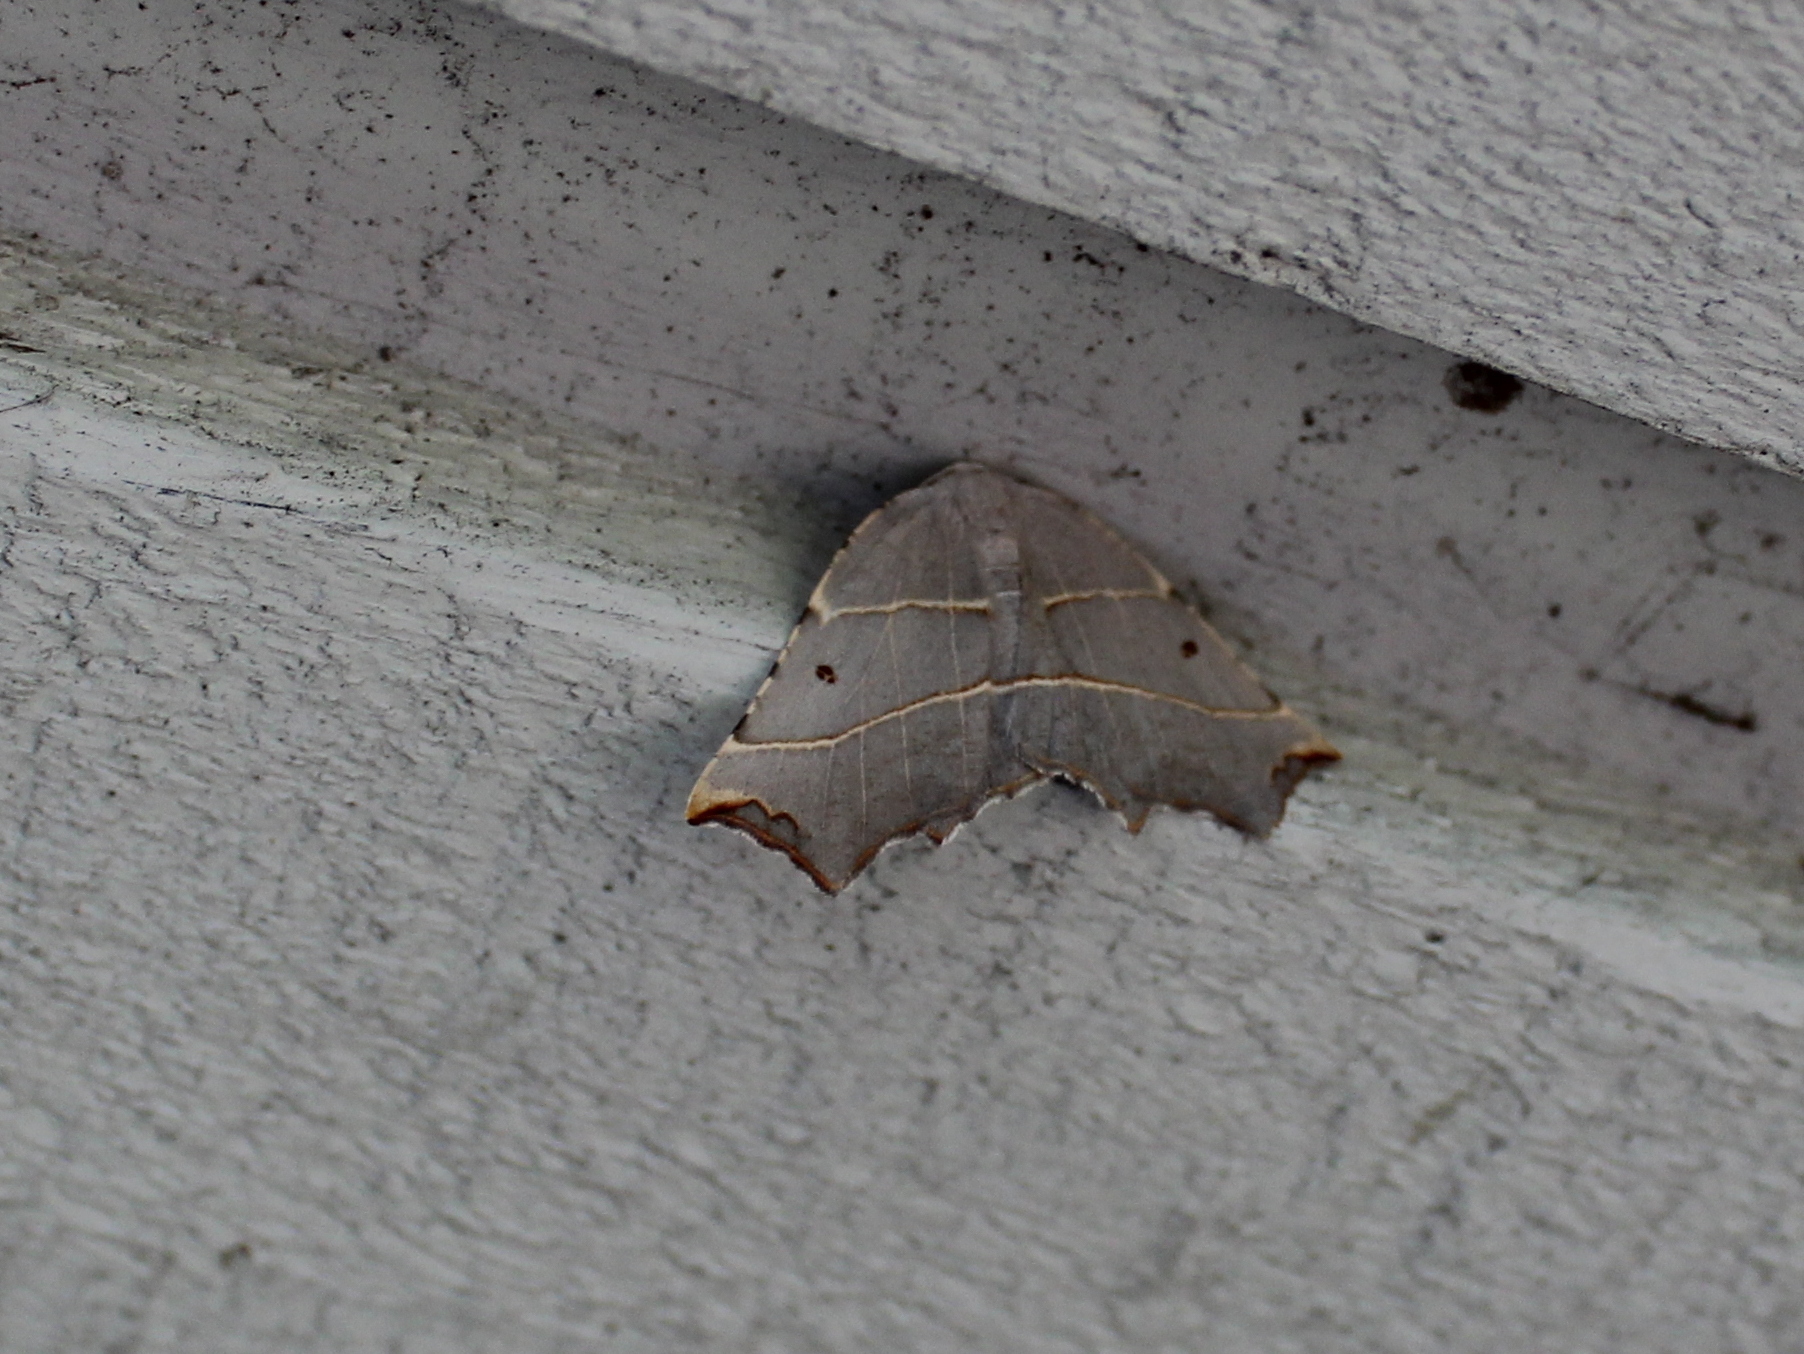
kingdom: Animalia
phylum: Arthropoda
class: Insecta
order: Lepidoptera
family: Geometridae
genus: Metanema
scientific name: Metanema inatomaria
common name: Pale metanema
